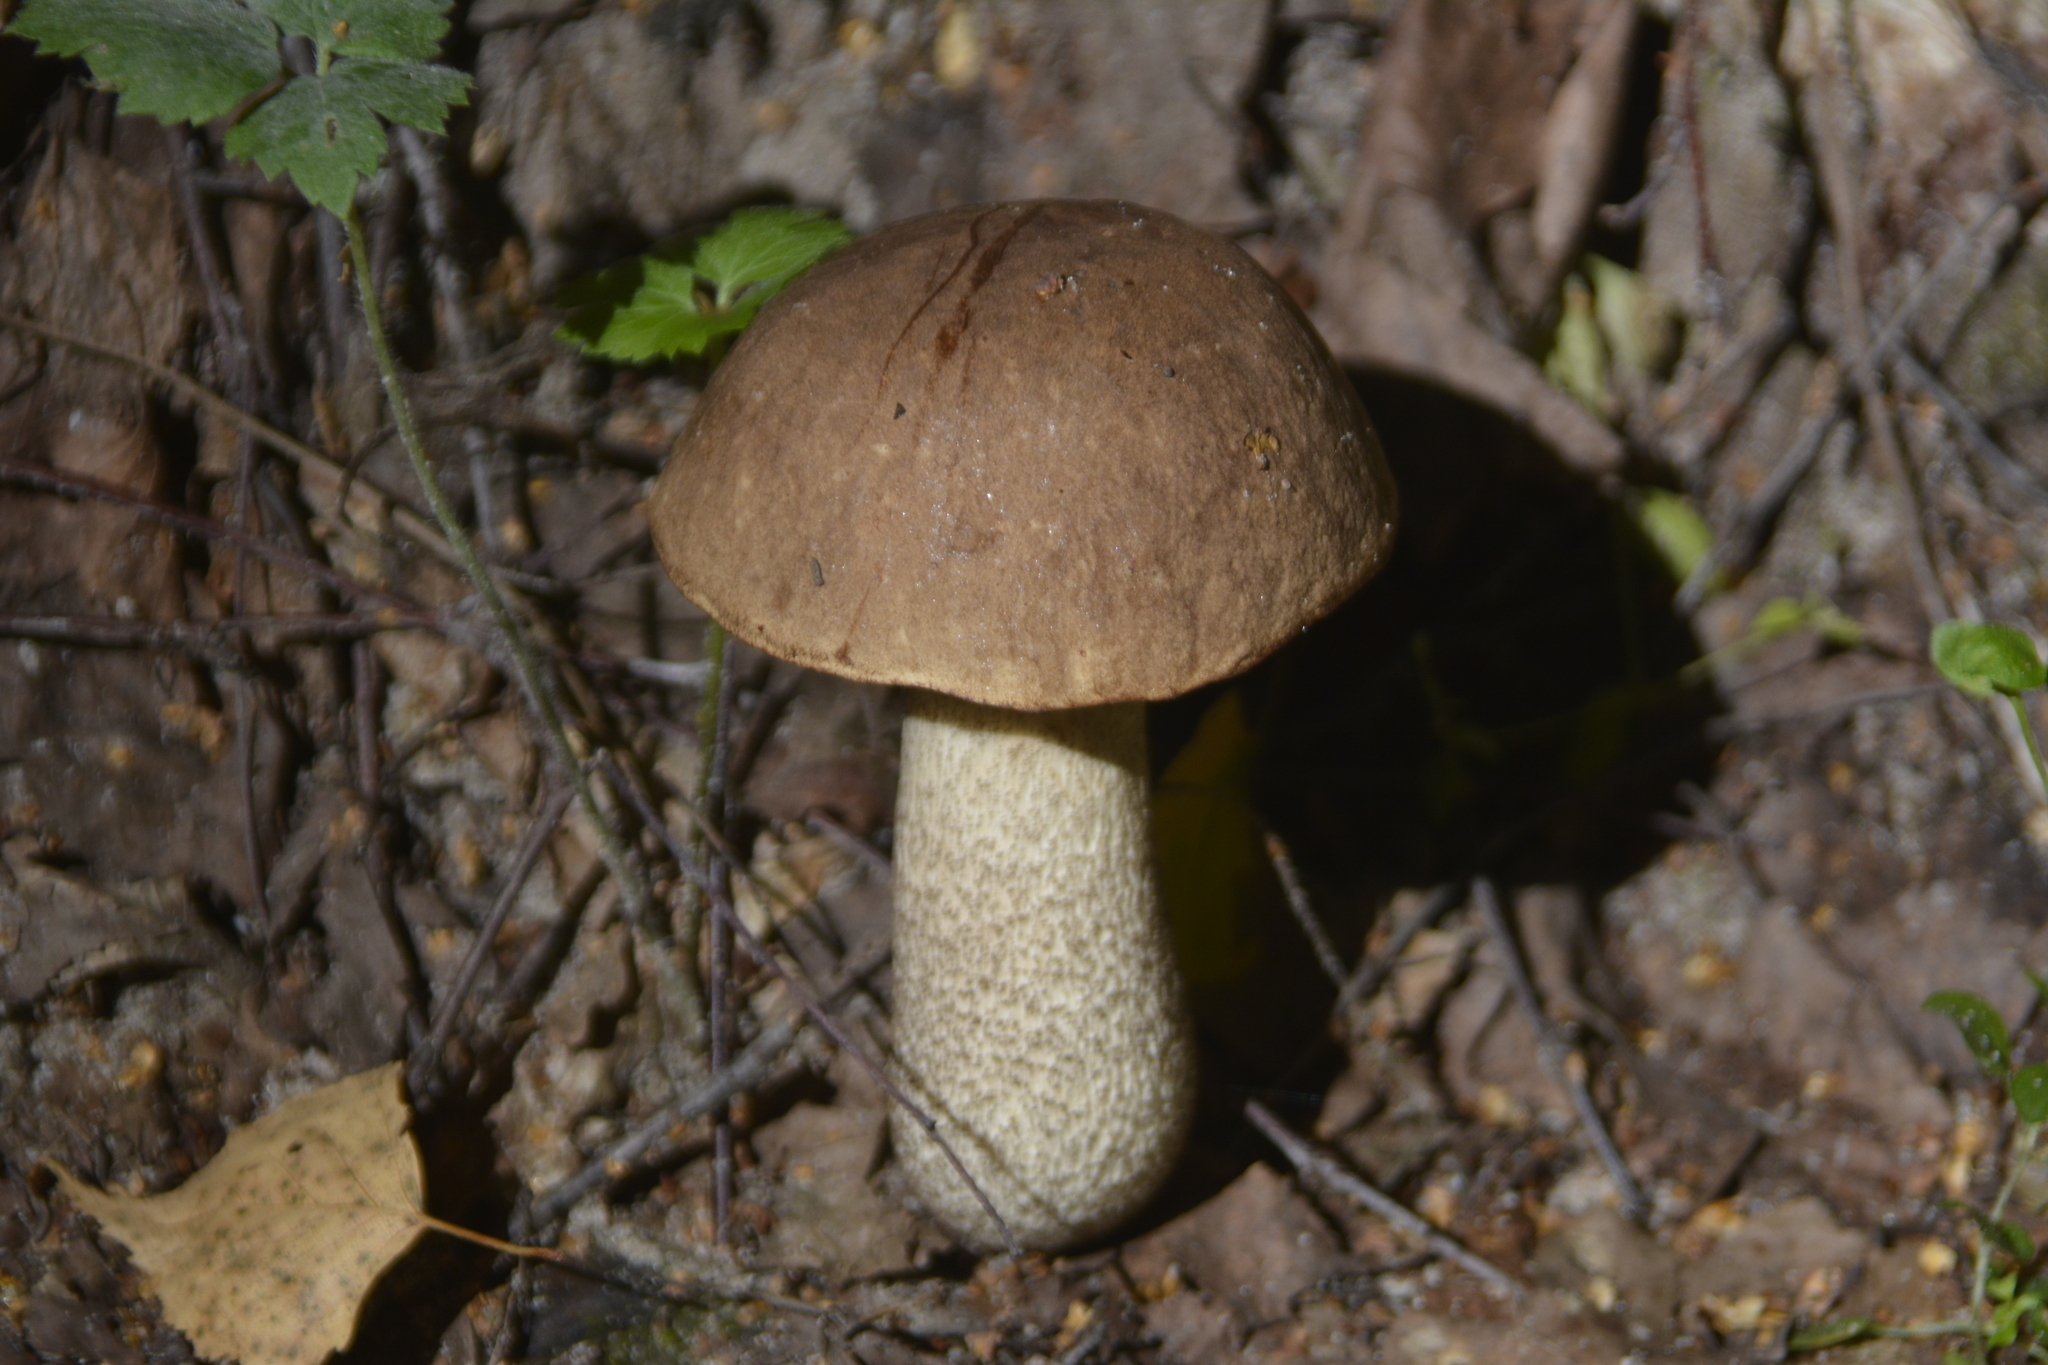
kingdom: Fungi
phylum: Basidiomycota
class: Agaricomycetes
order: Boletales
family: Boletaceae
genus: Leccinum
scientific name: Leccinum scabrum
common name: Blushing bolete
